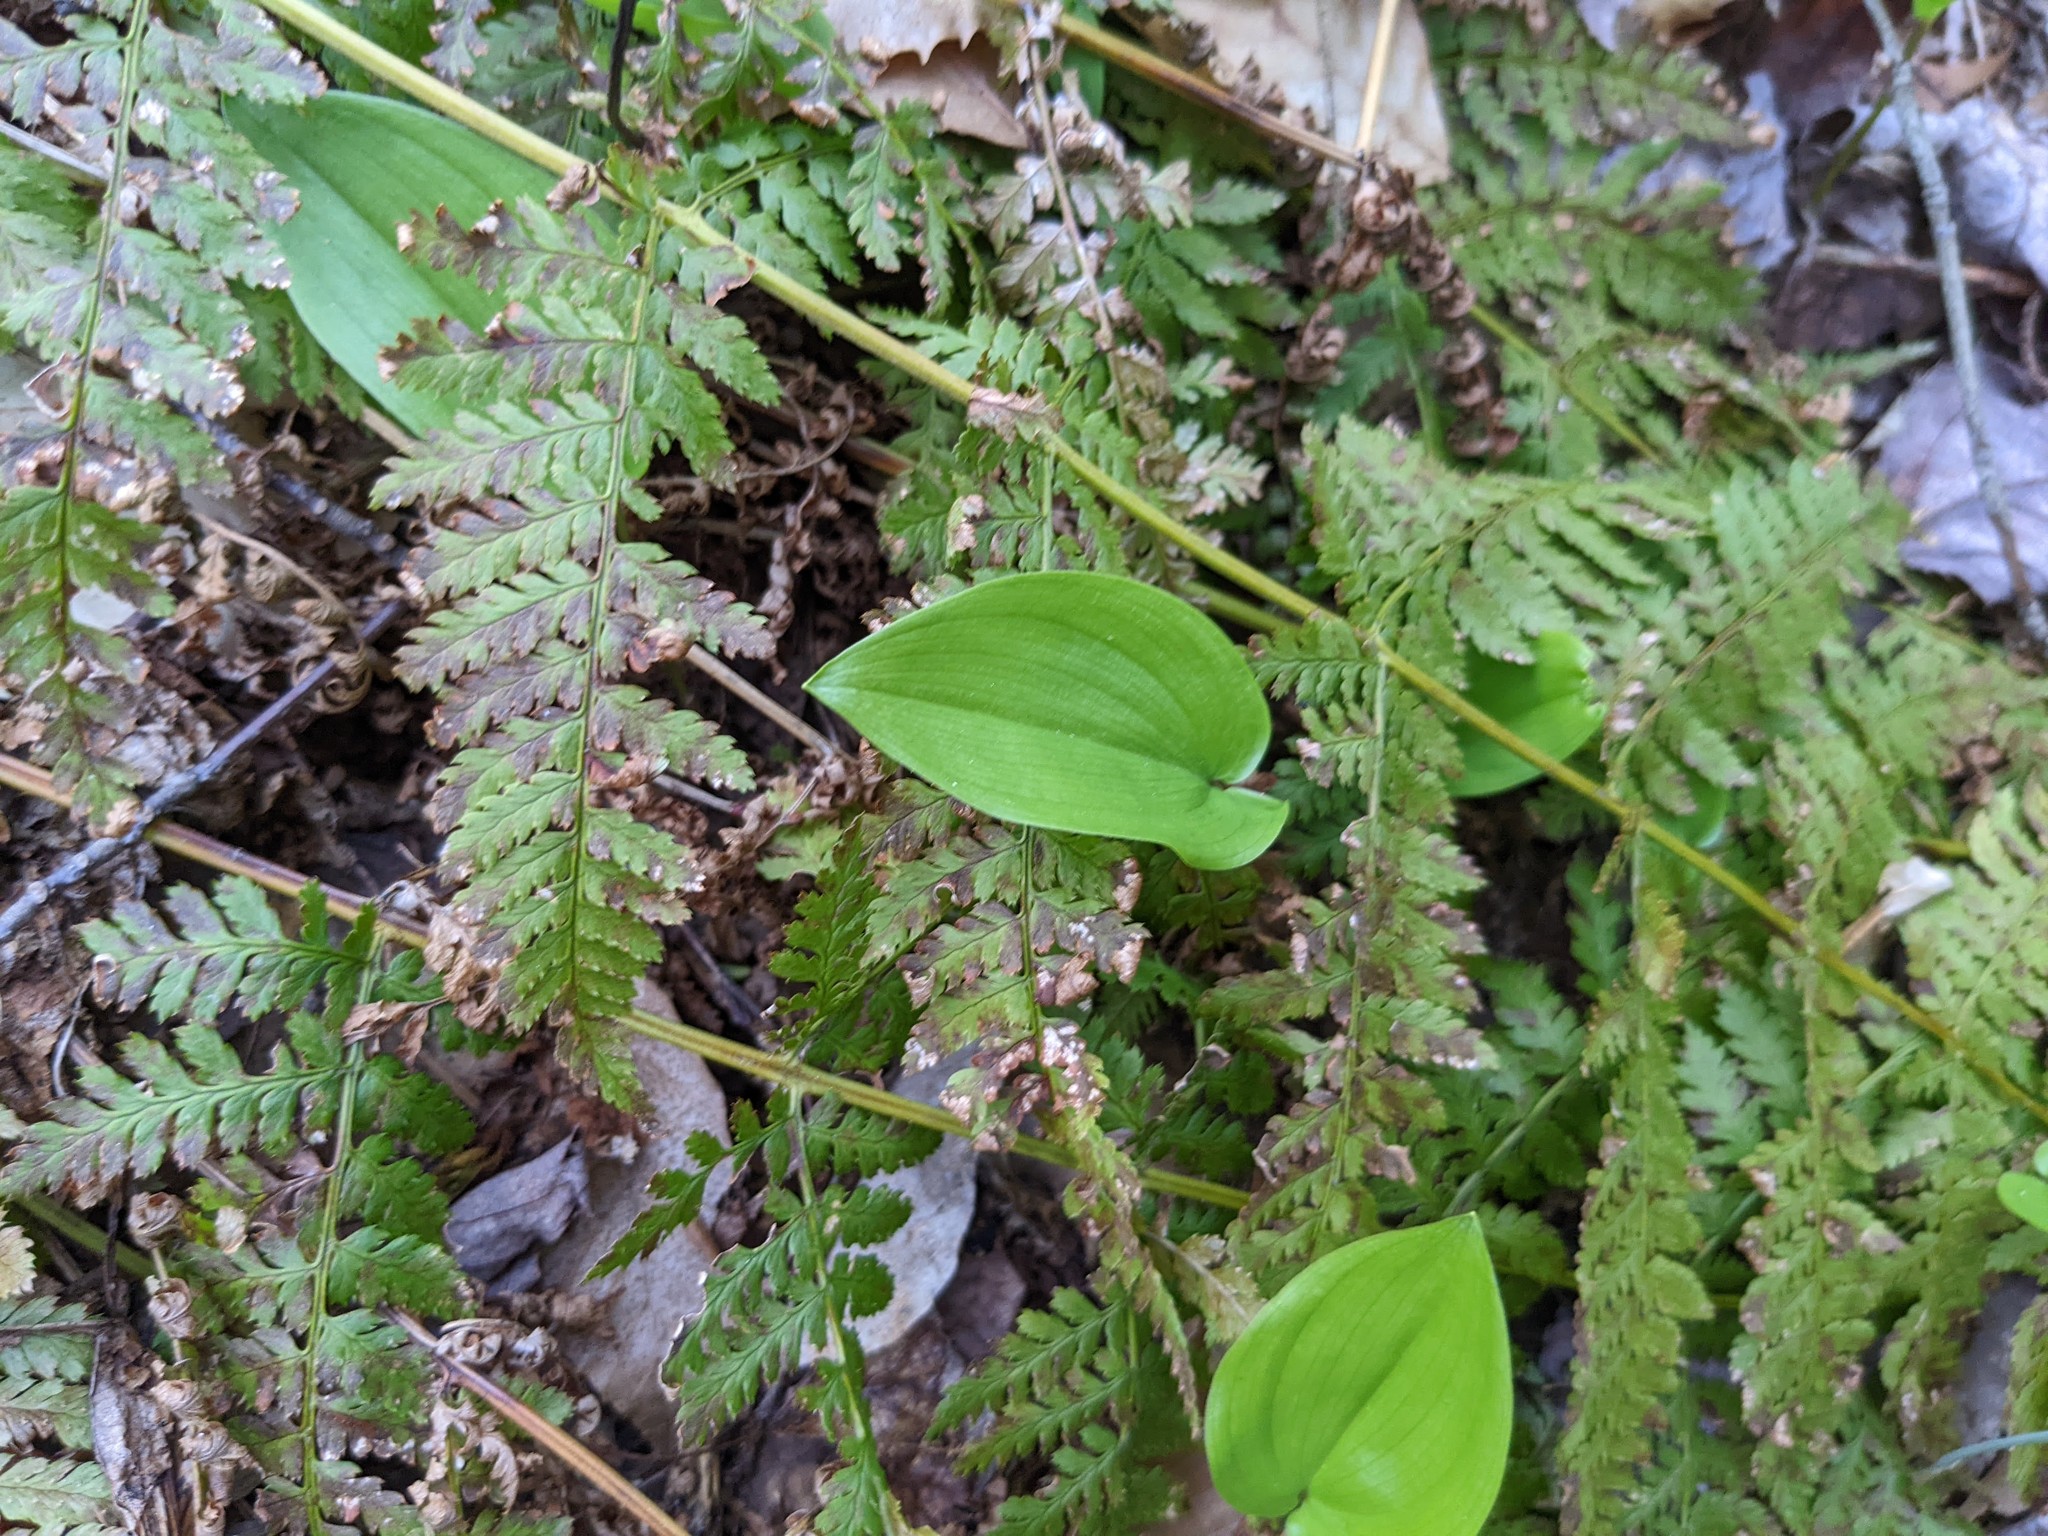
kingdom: Plantae
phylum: Tracheophyta
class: Liliopsida
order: Asparagales
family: Asparagaceae
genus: Maianthemum
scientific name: Maianthemum canadense
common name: False lily-of-the-valley
